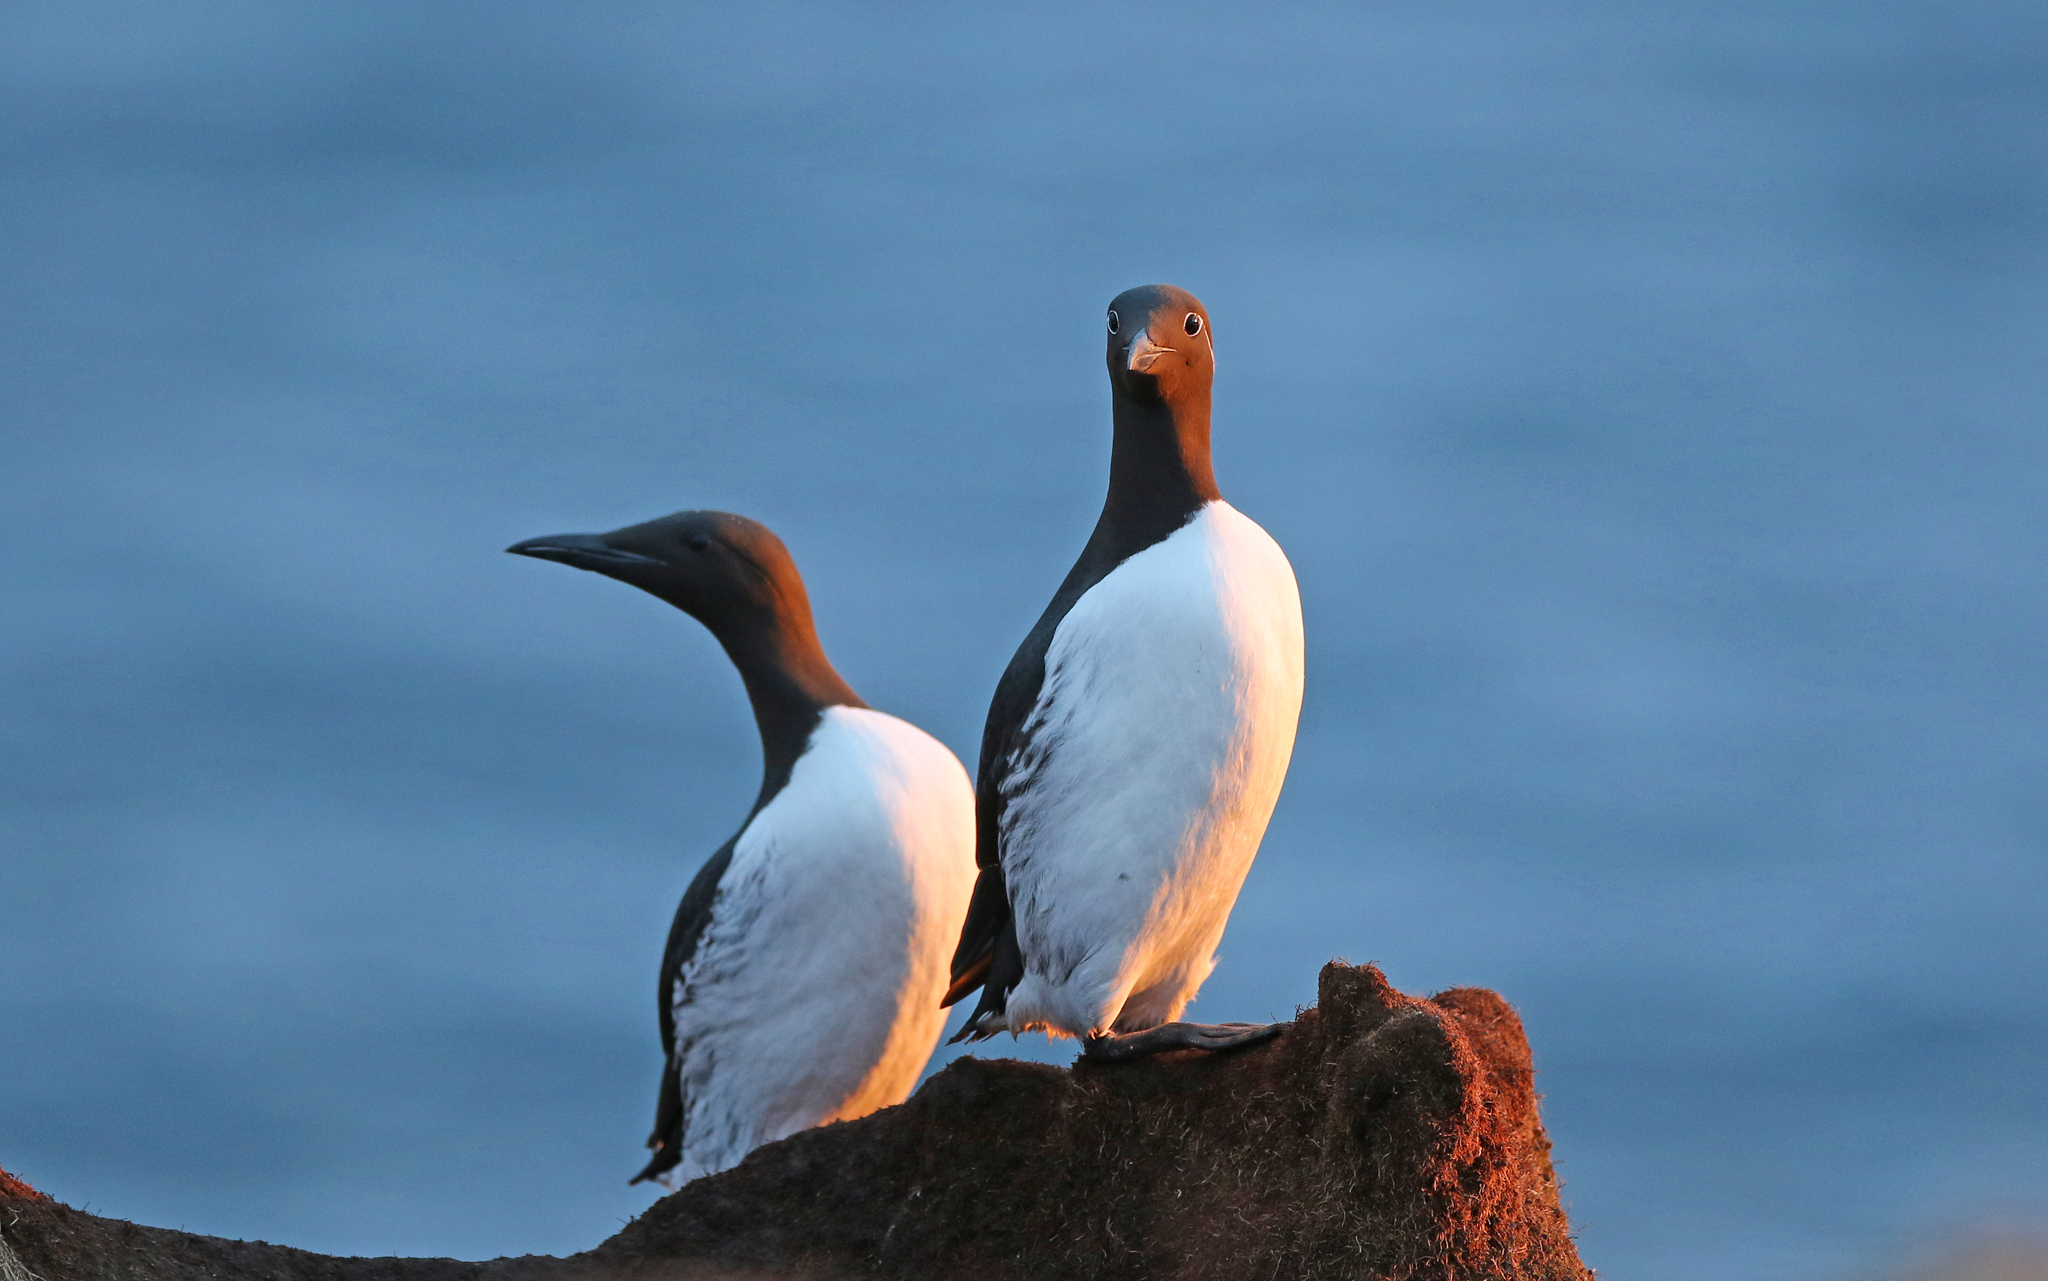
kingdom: Animalia
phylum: Chordata
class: Aves
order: Charadriiformes
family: Alcidae
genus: Uria
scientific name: Uria aalge
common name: Common murre
